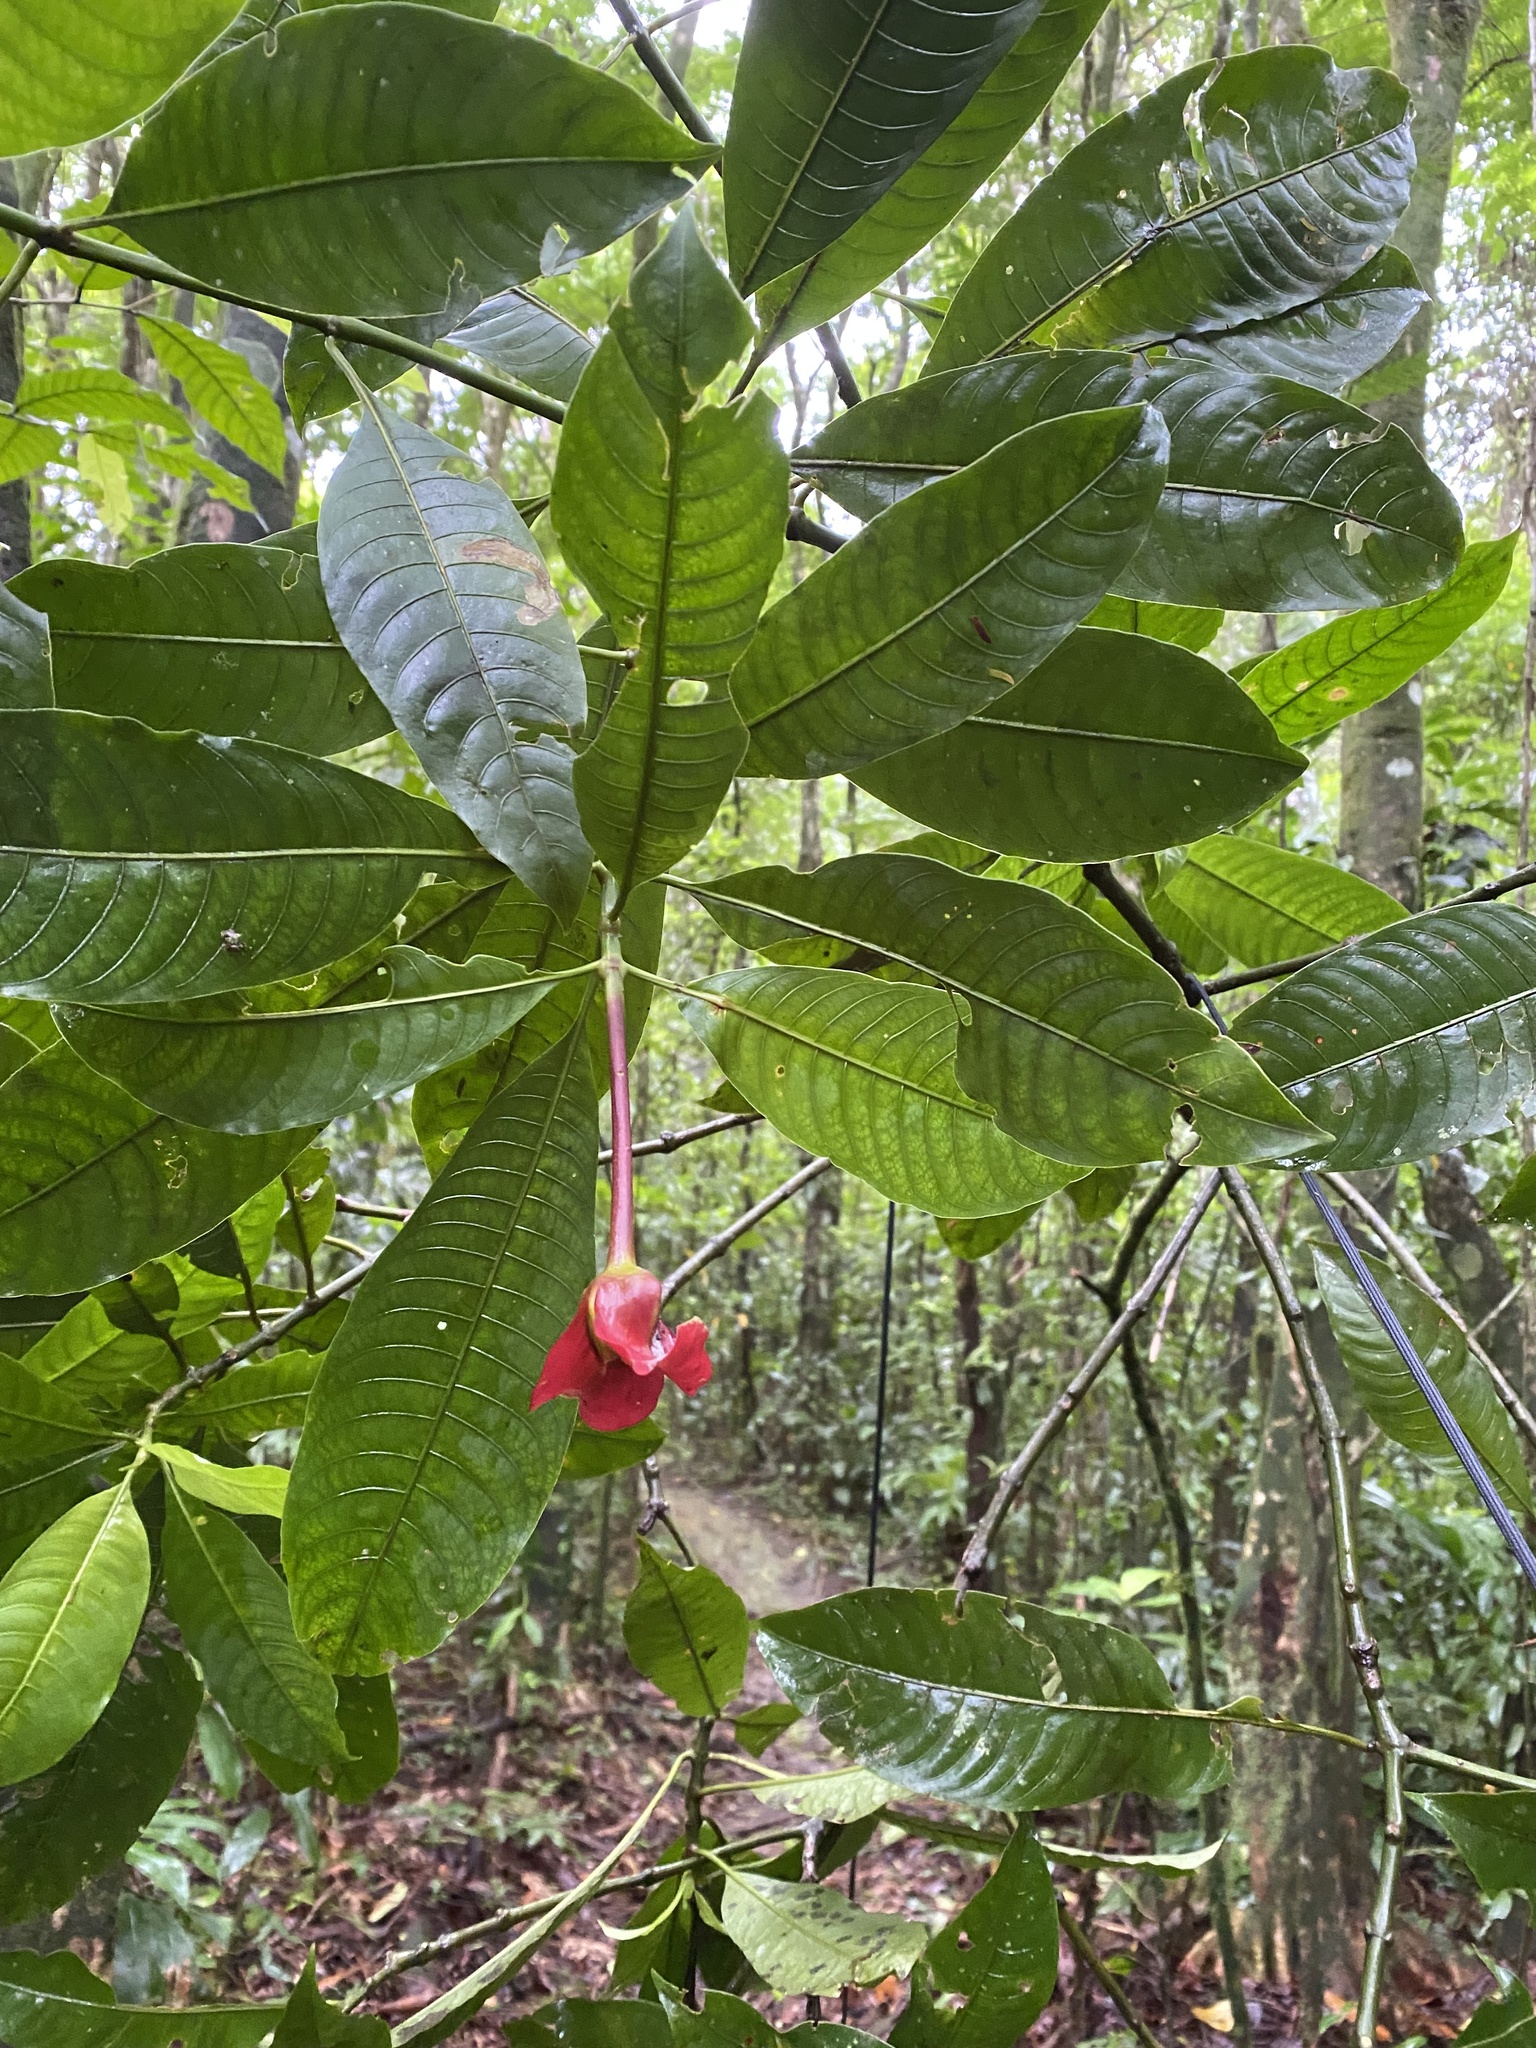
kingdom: Plantae
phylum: Tracheophyta
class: Magnoliopsida
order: Gentianales
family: Rubiaceae
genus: Palicourea
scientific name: Palicourea elata
